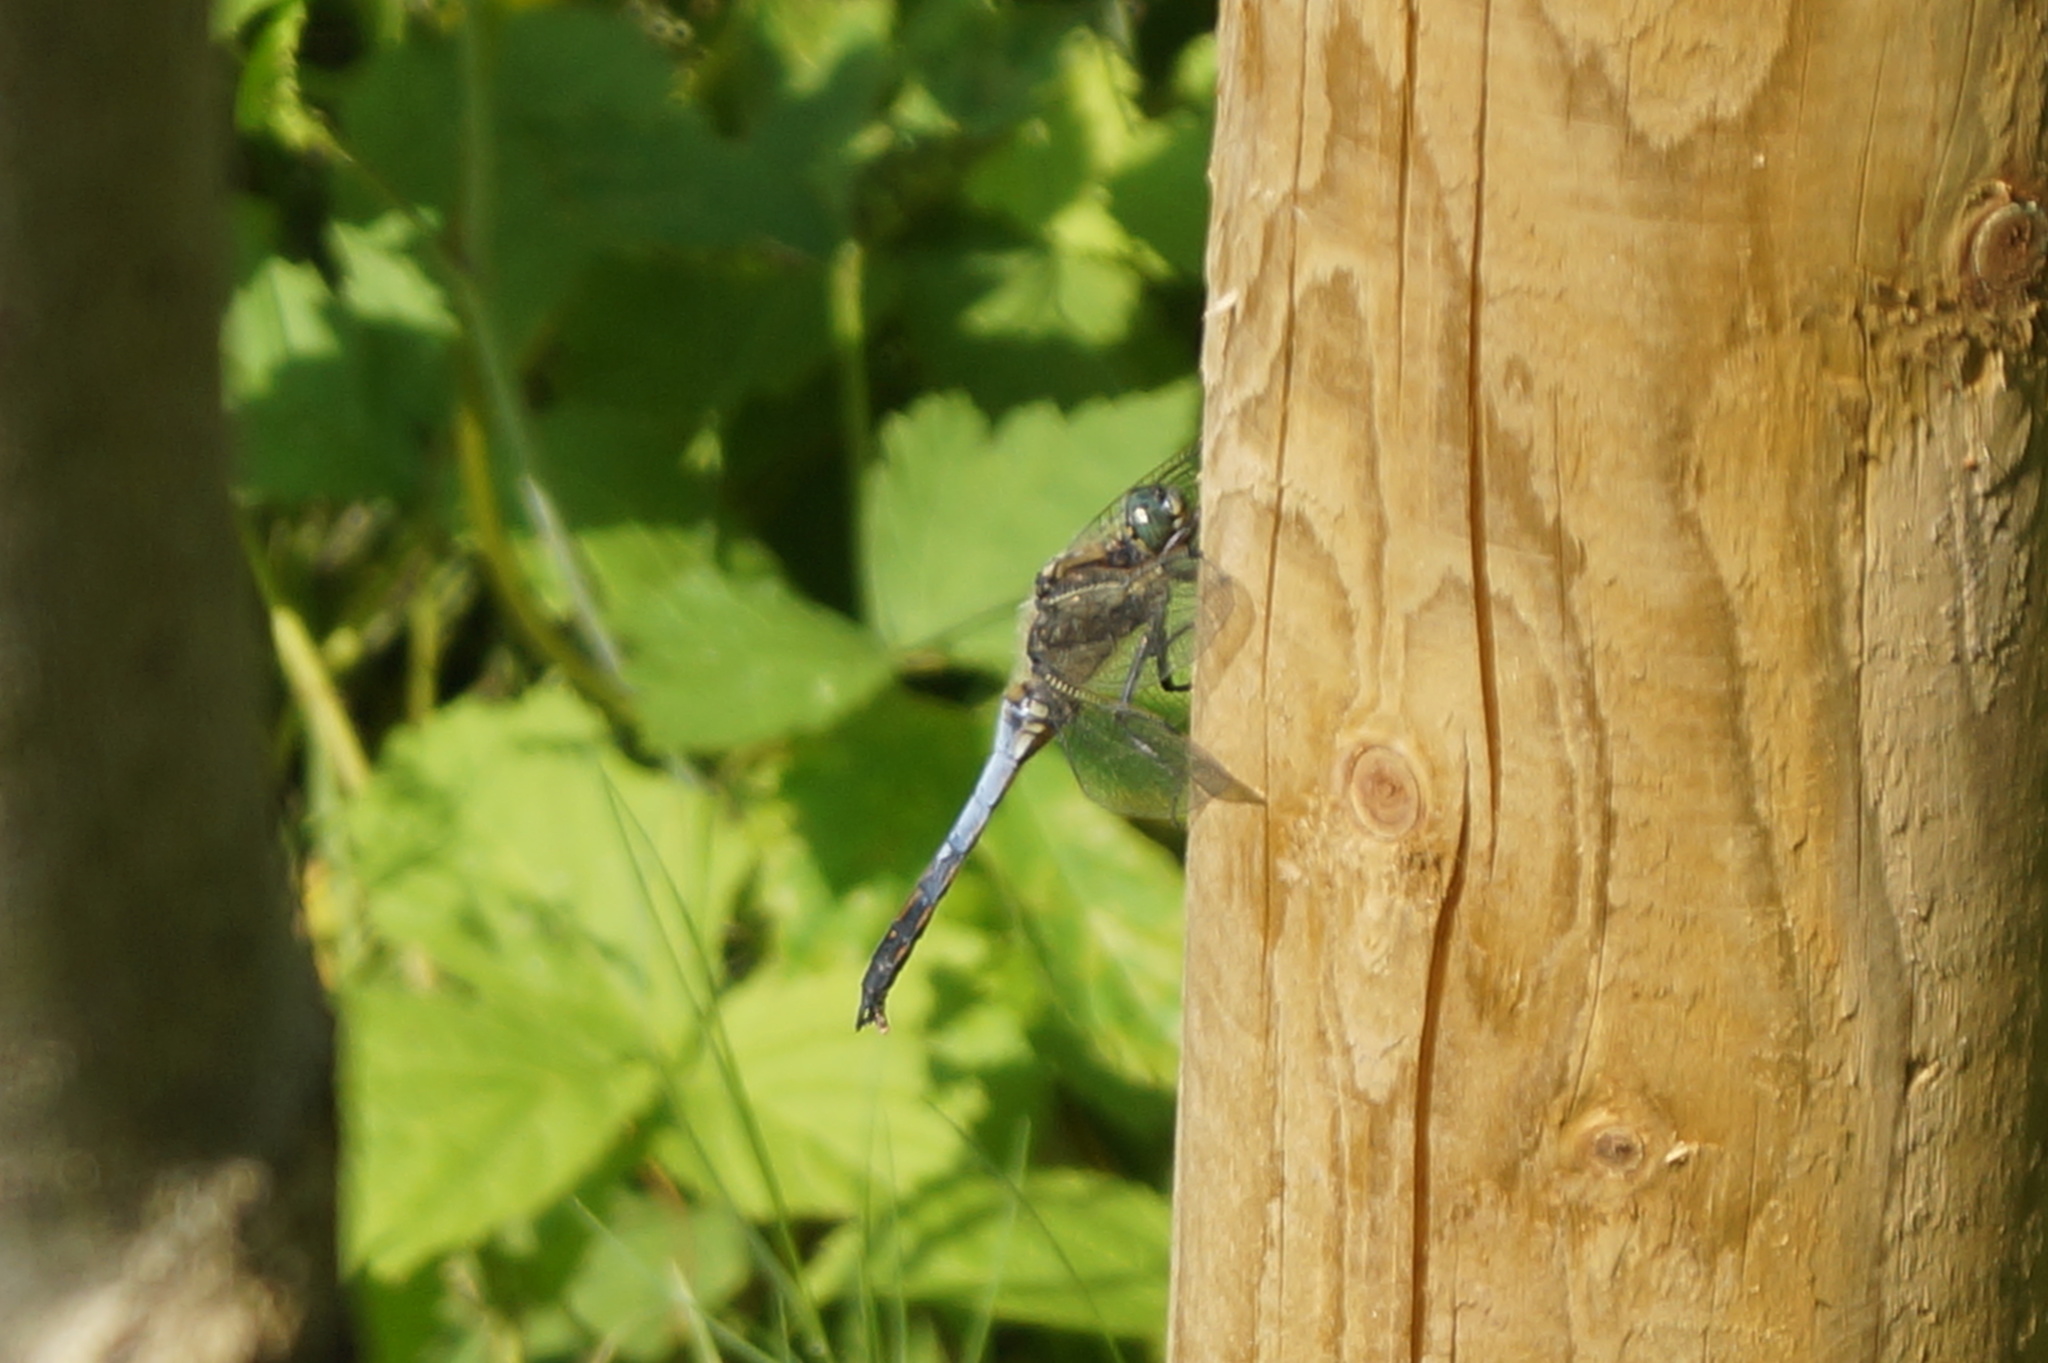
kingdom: Animalia
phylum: Arthropoda
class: Insecta
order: Odonata
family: Libellulidae
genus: Orthetrum
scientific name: Orthetrum cancellatum
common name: Black-tailed skimmer
